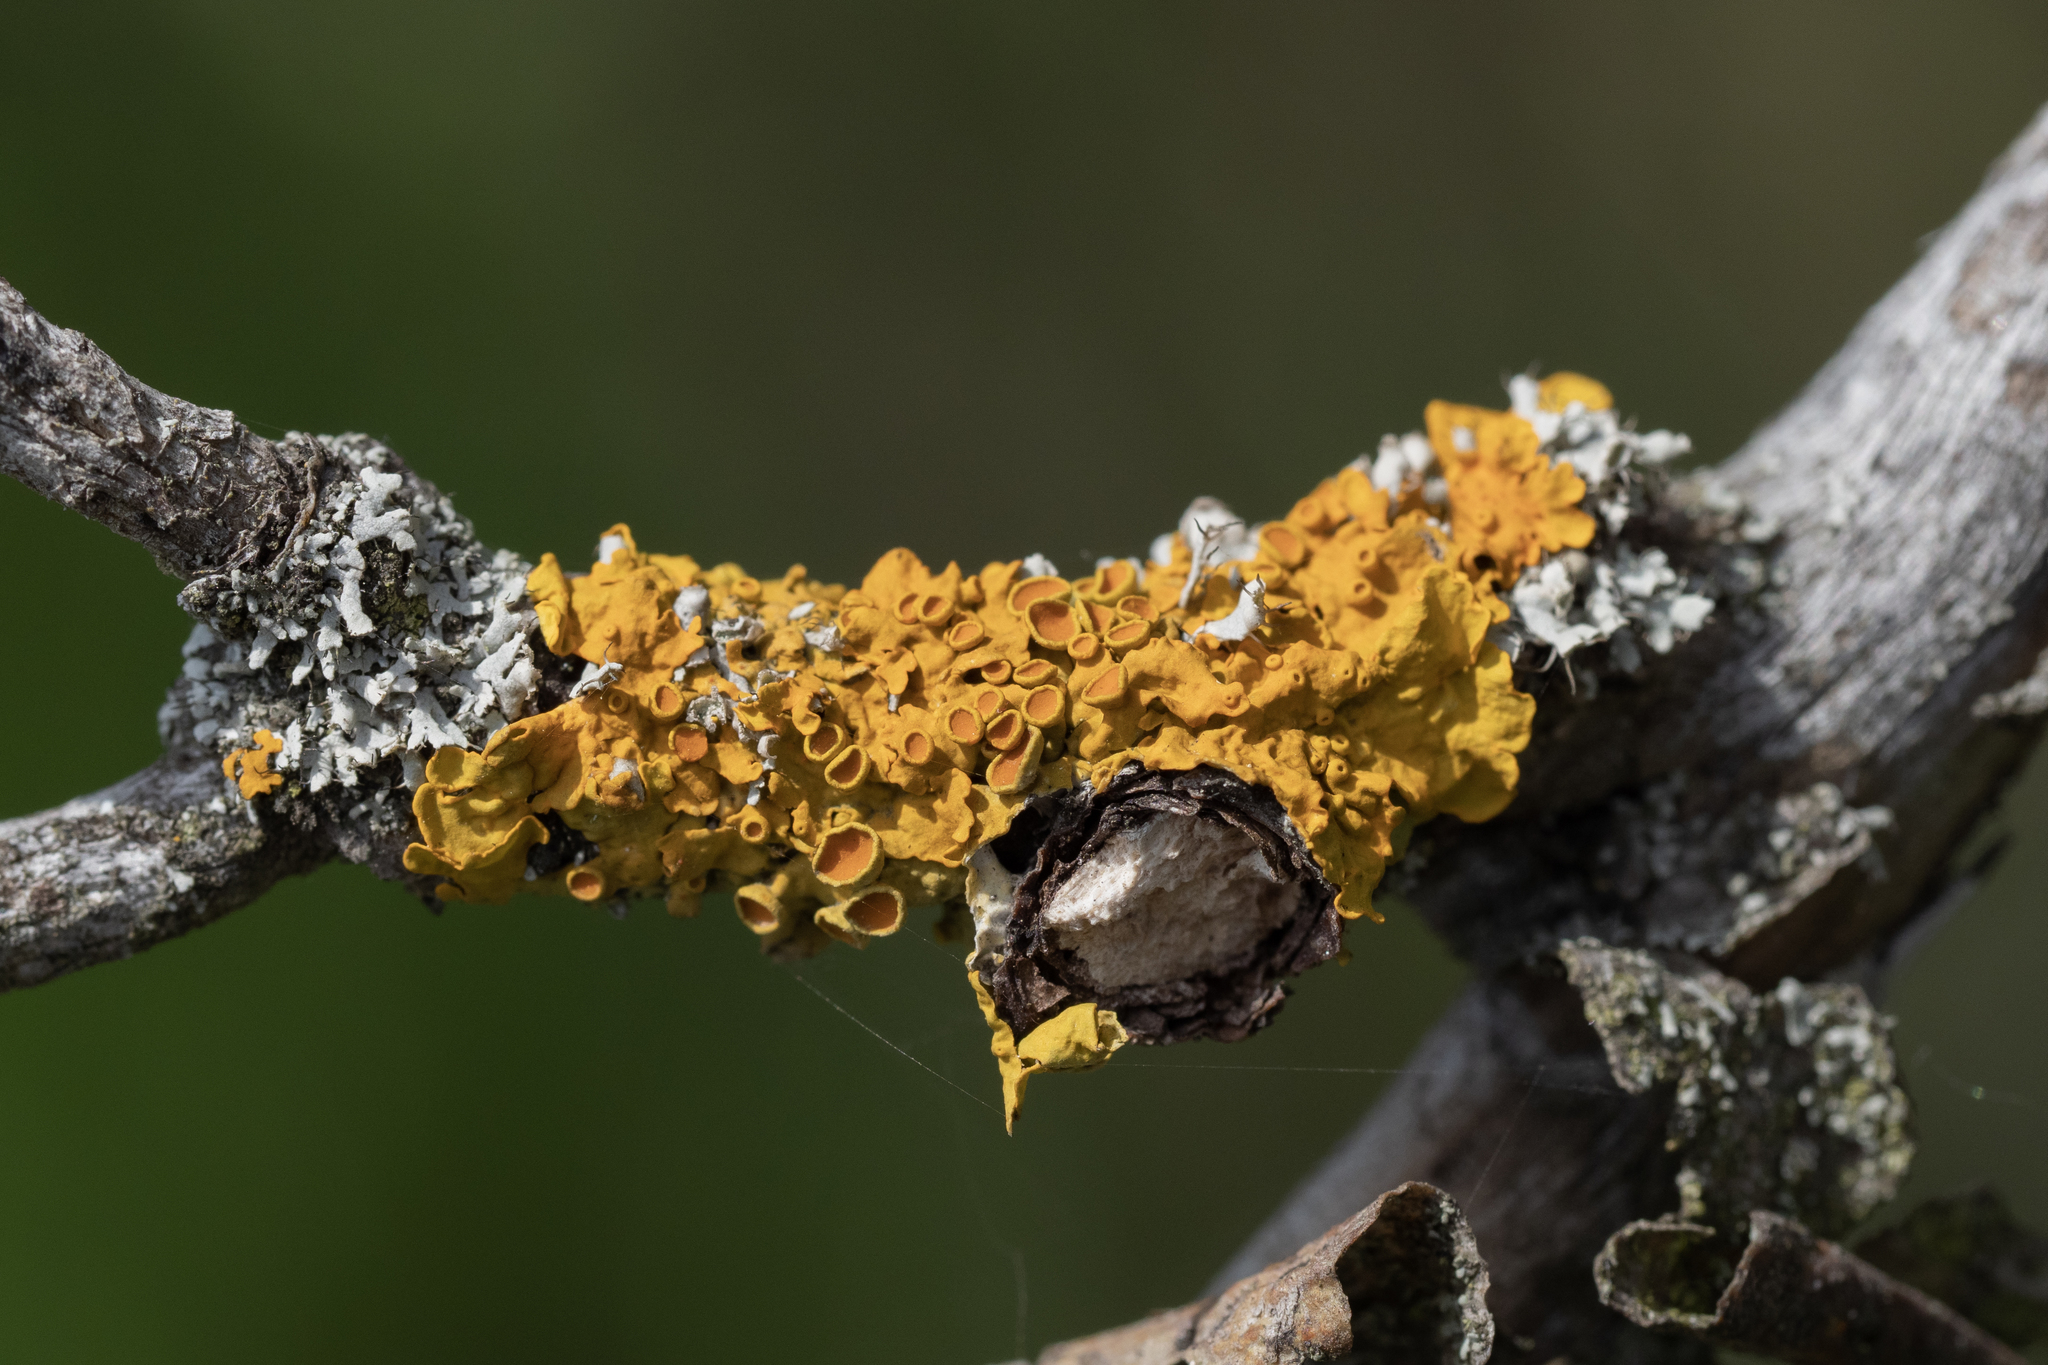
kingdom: Fungi
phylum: Ascomycota
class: Lecanoromycetes
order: Teloschistales
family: Teloschistaceae
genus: Xanthoria
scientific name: Xanthoria parietina
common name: Common orange lichen
